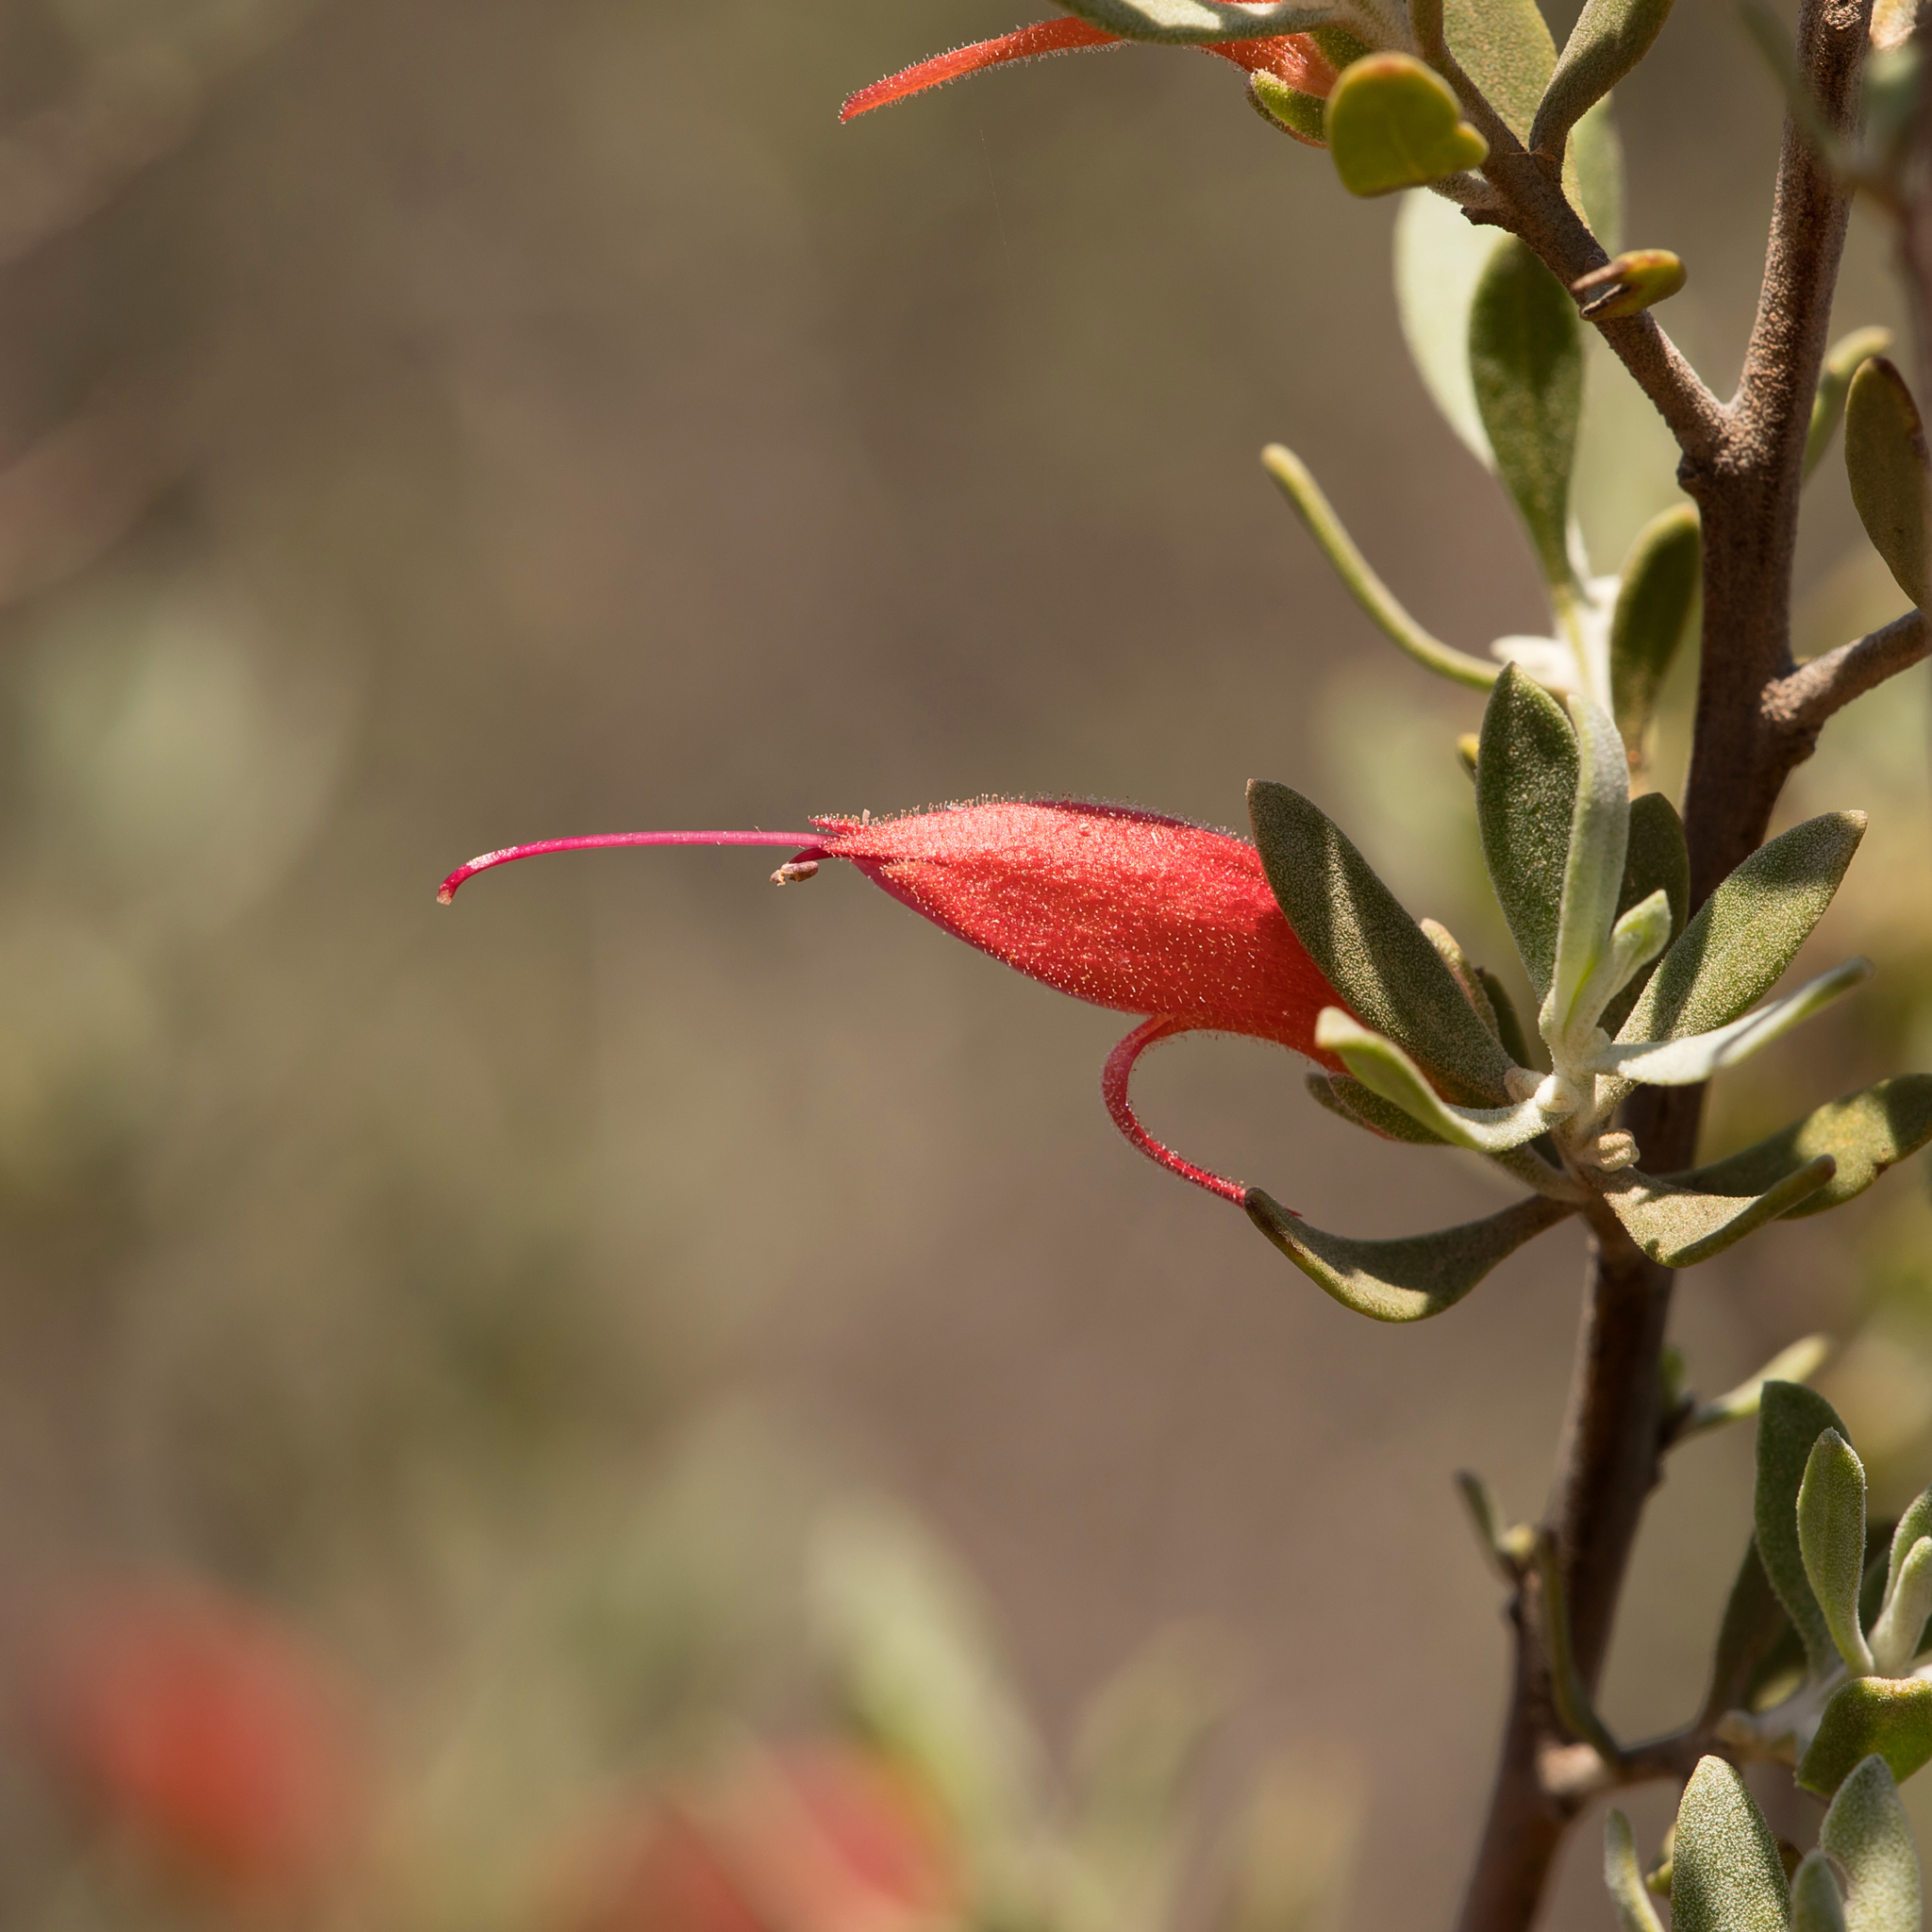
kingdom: Plantae
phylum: Tracheophyta
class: Magnoliopsida
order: Lamiales
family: Scrophulariaceae
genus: Eremophila
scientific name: Eremophila glabra
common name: Black-fuchsia
